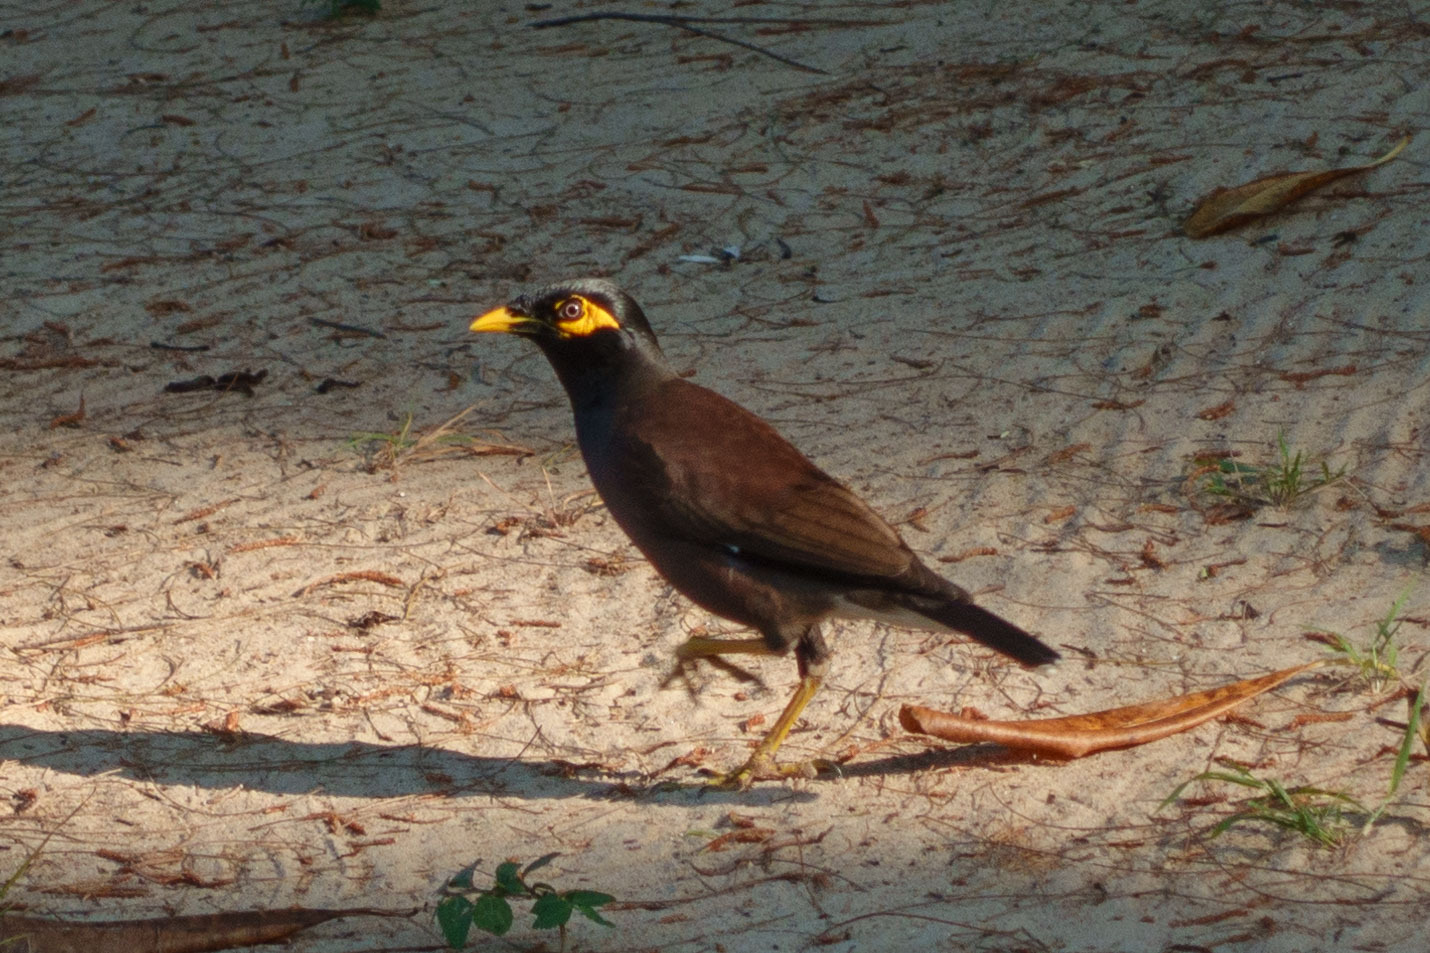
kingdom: Animalia
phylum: Chordata
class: Aves
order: Passeriformes
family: Sturnidae
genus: Acridotheres
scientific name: Acridotheres tristis
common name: Common myna
